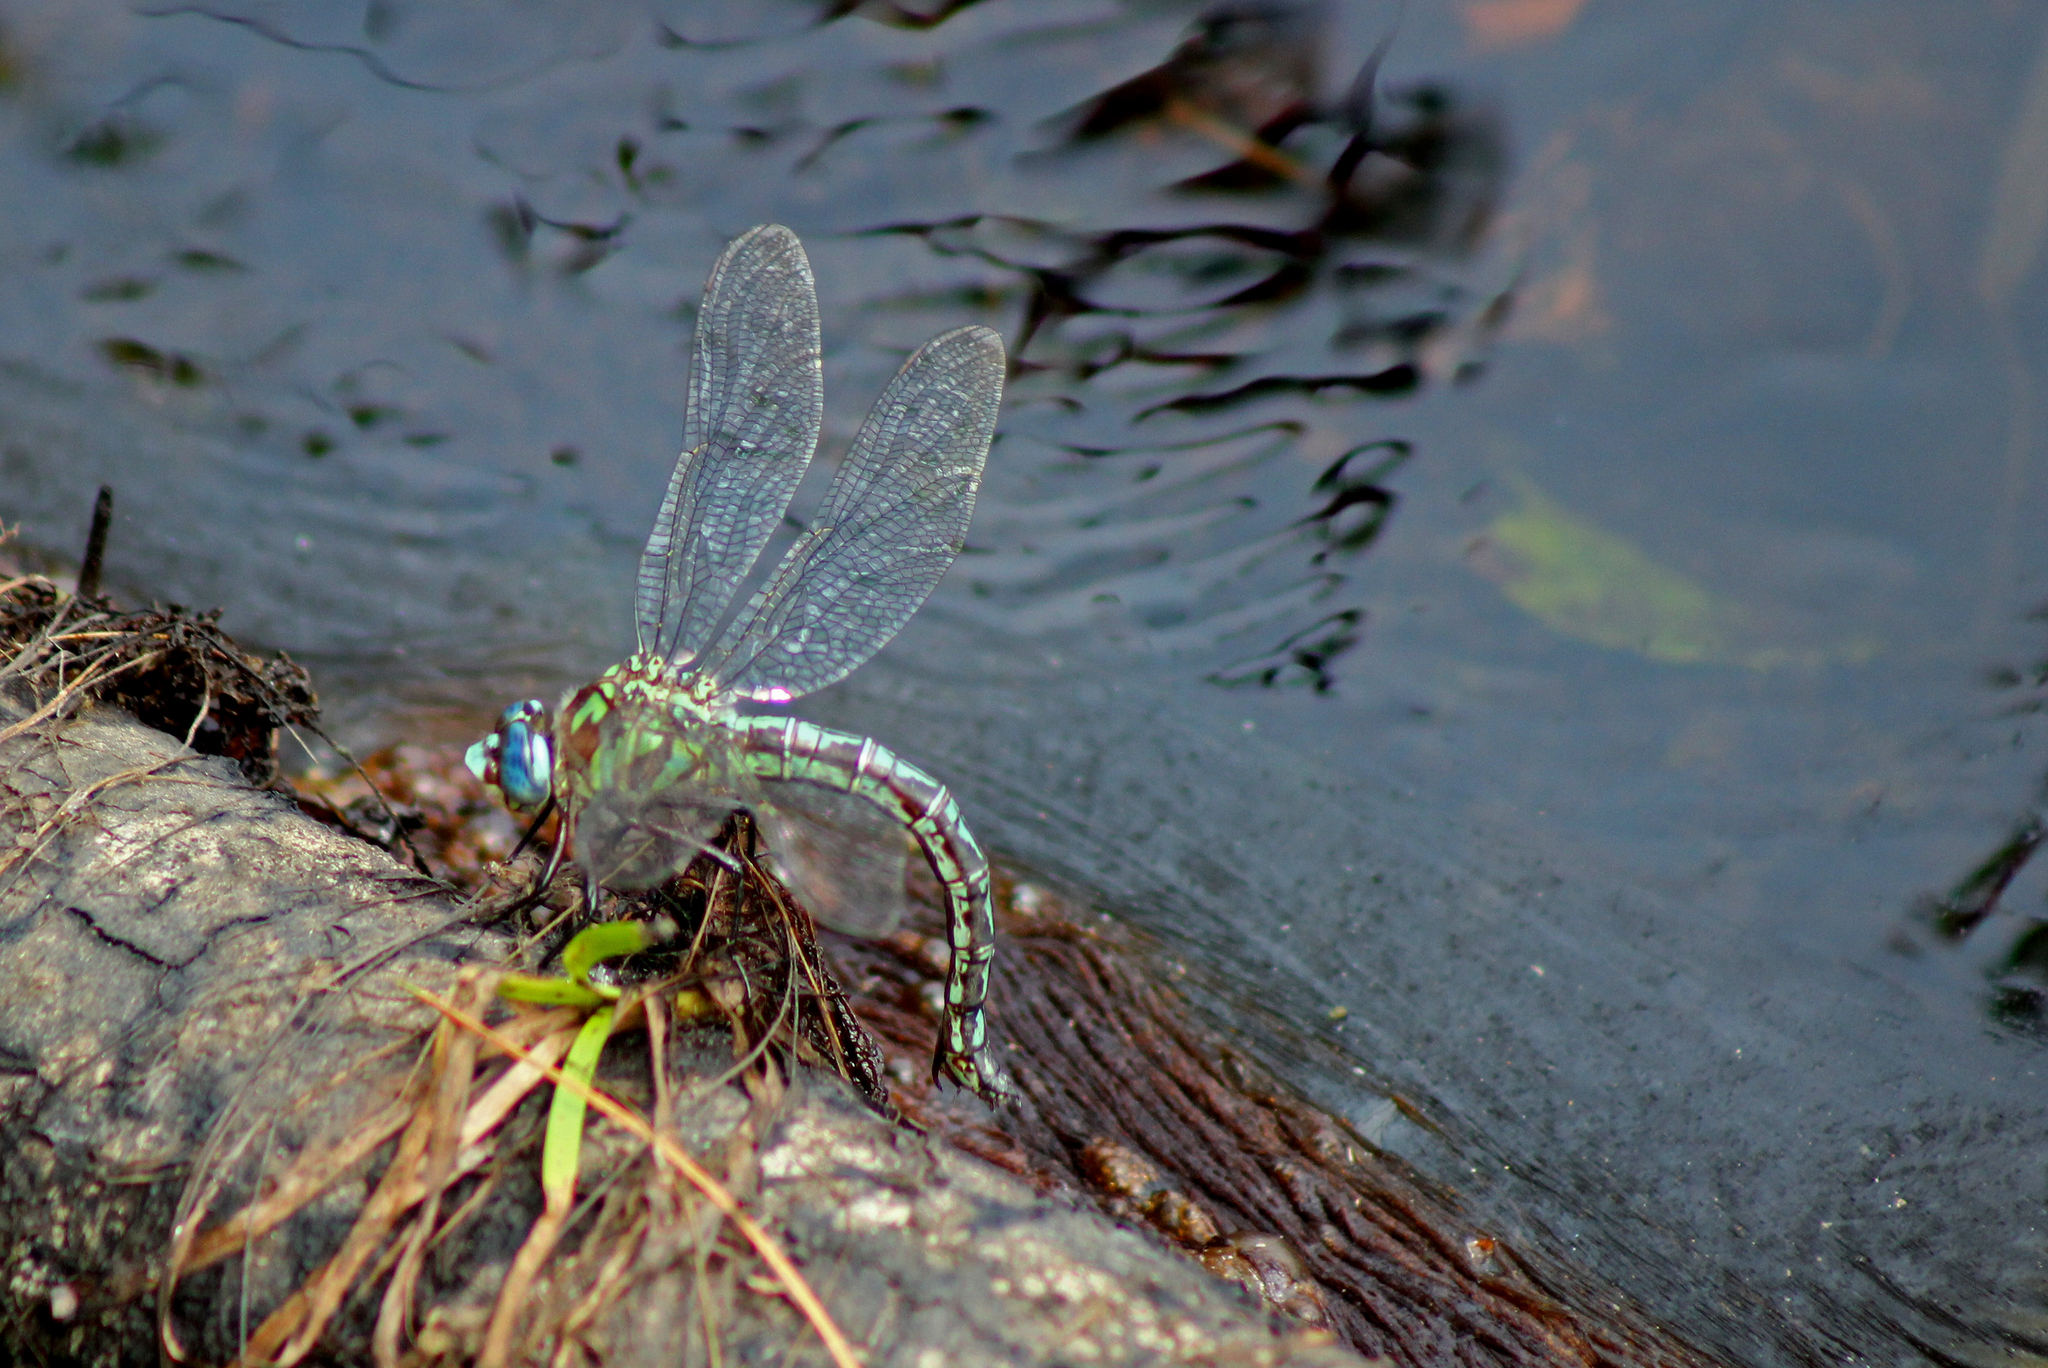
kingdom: Animalia
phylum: Arthropoda
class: Insecta
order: Odonata
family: Aeshnidae
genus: Nasiaeschna
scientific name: Nasiaeschna pentacantha
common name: Cyrano darner
